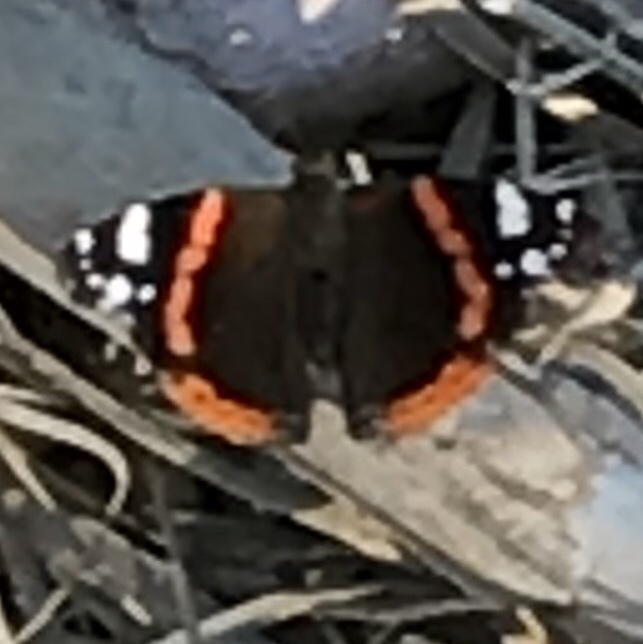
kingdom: Animalia
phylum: Arthropoda
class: Insecta
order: Lepidoptera
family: Nymphalidae
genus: Vanessa
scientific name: Vanessa atalanta
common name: Red admiral
